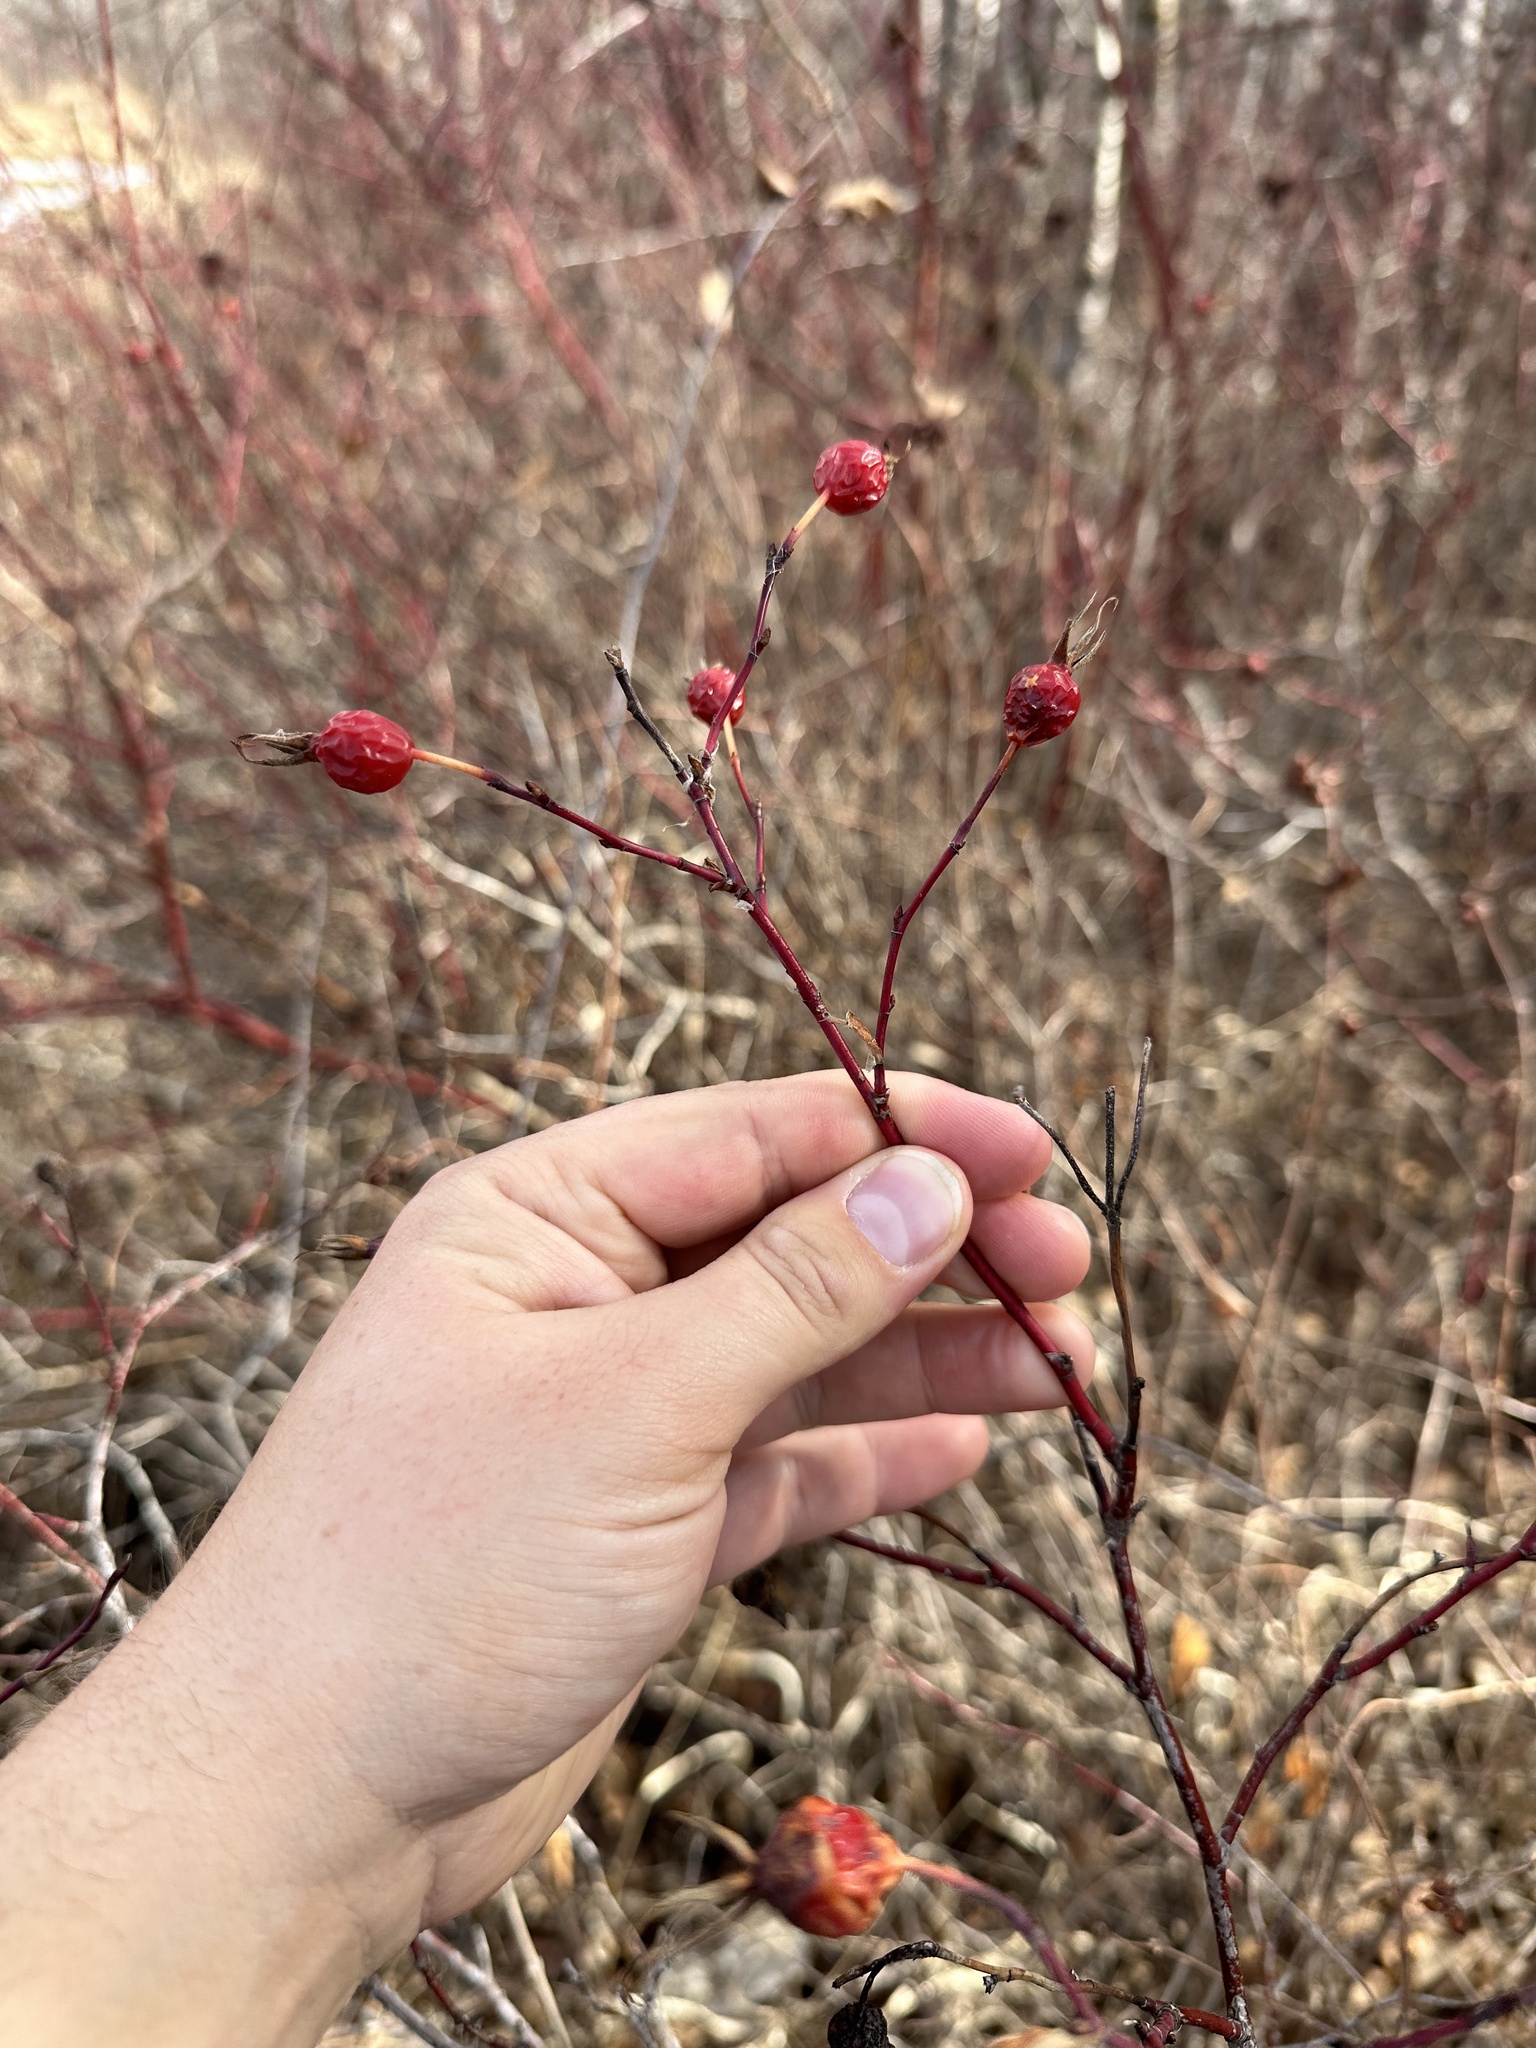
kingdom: Plantae
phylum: Tracheophyta
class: Magnoliopsida
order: Rosales
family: Rosaceae
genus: Rosa
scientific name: Rosa woodsii
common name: Woods's rose
